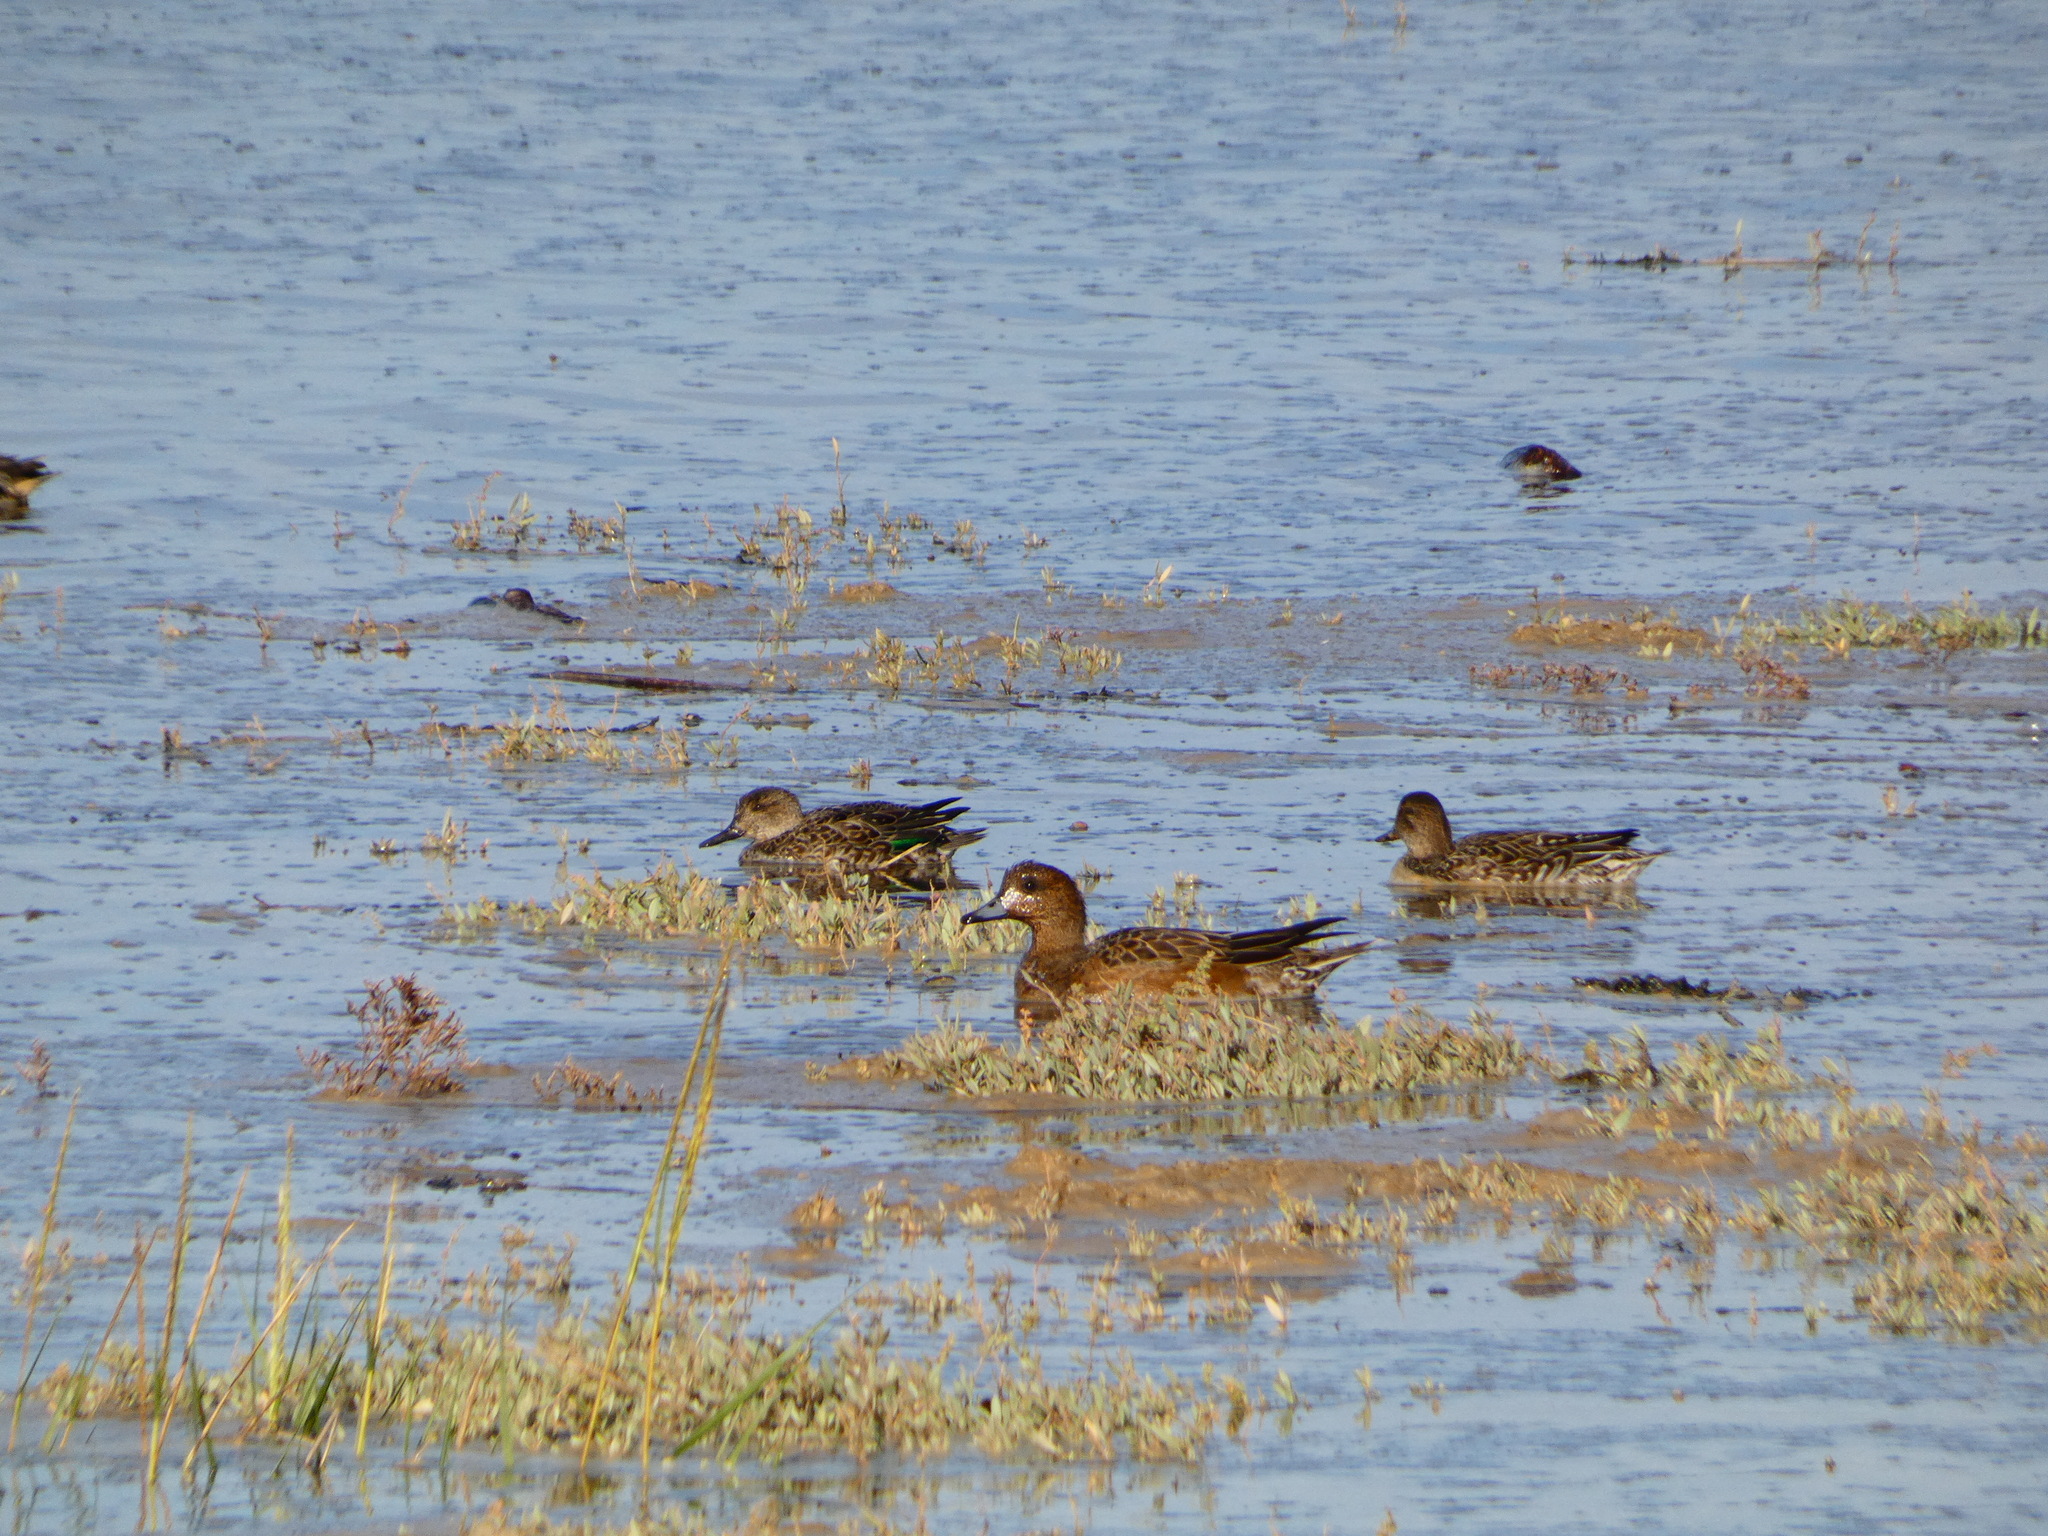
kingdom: Animalia
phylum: Chordata
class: Aves
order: Anseriformes
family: Anatidae
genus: Anas
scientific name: Anas crecca
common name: Eurasian teal
